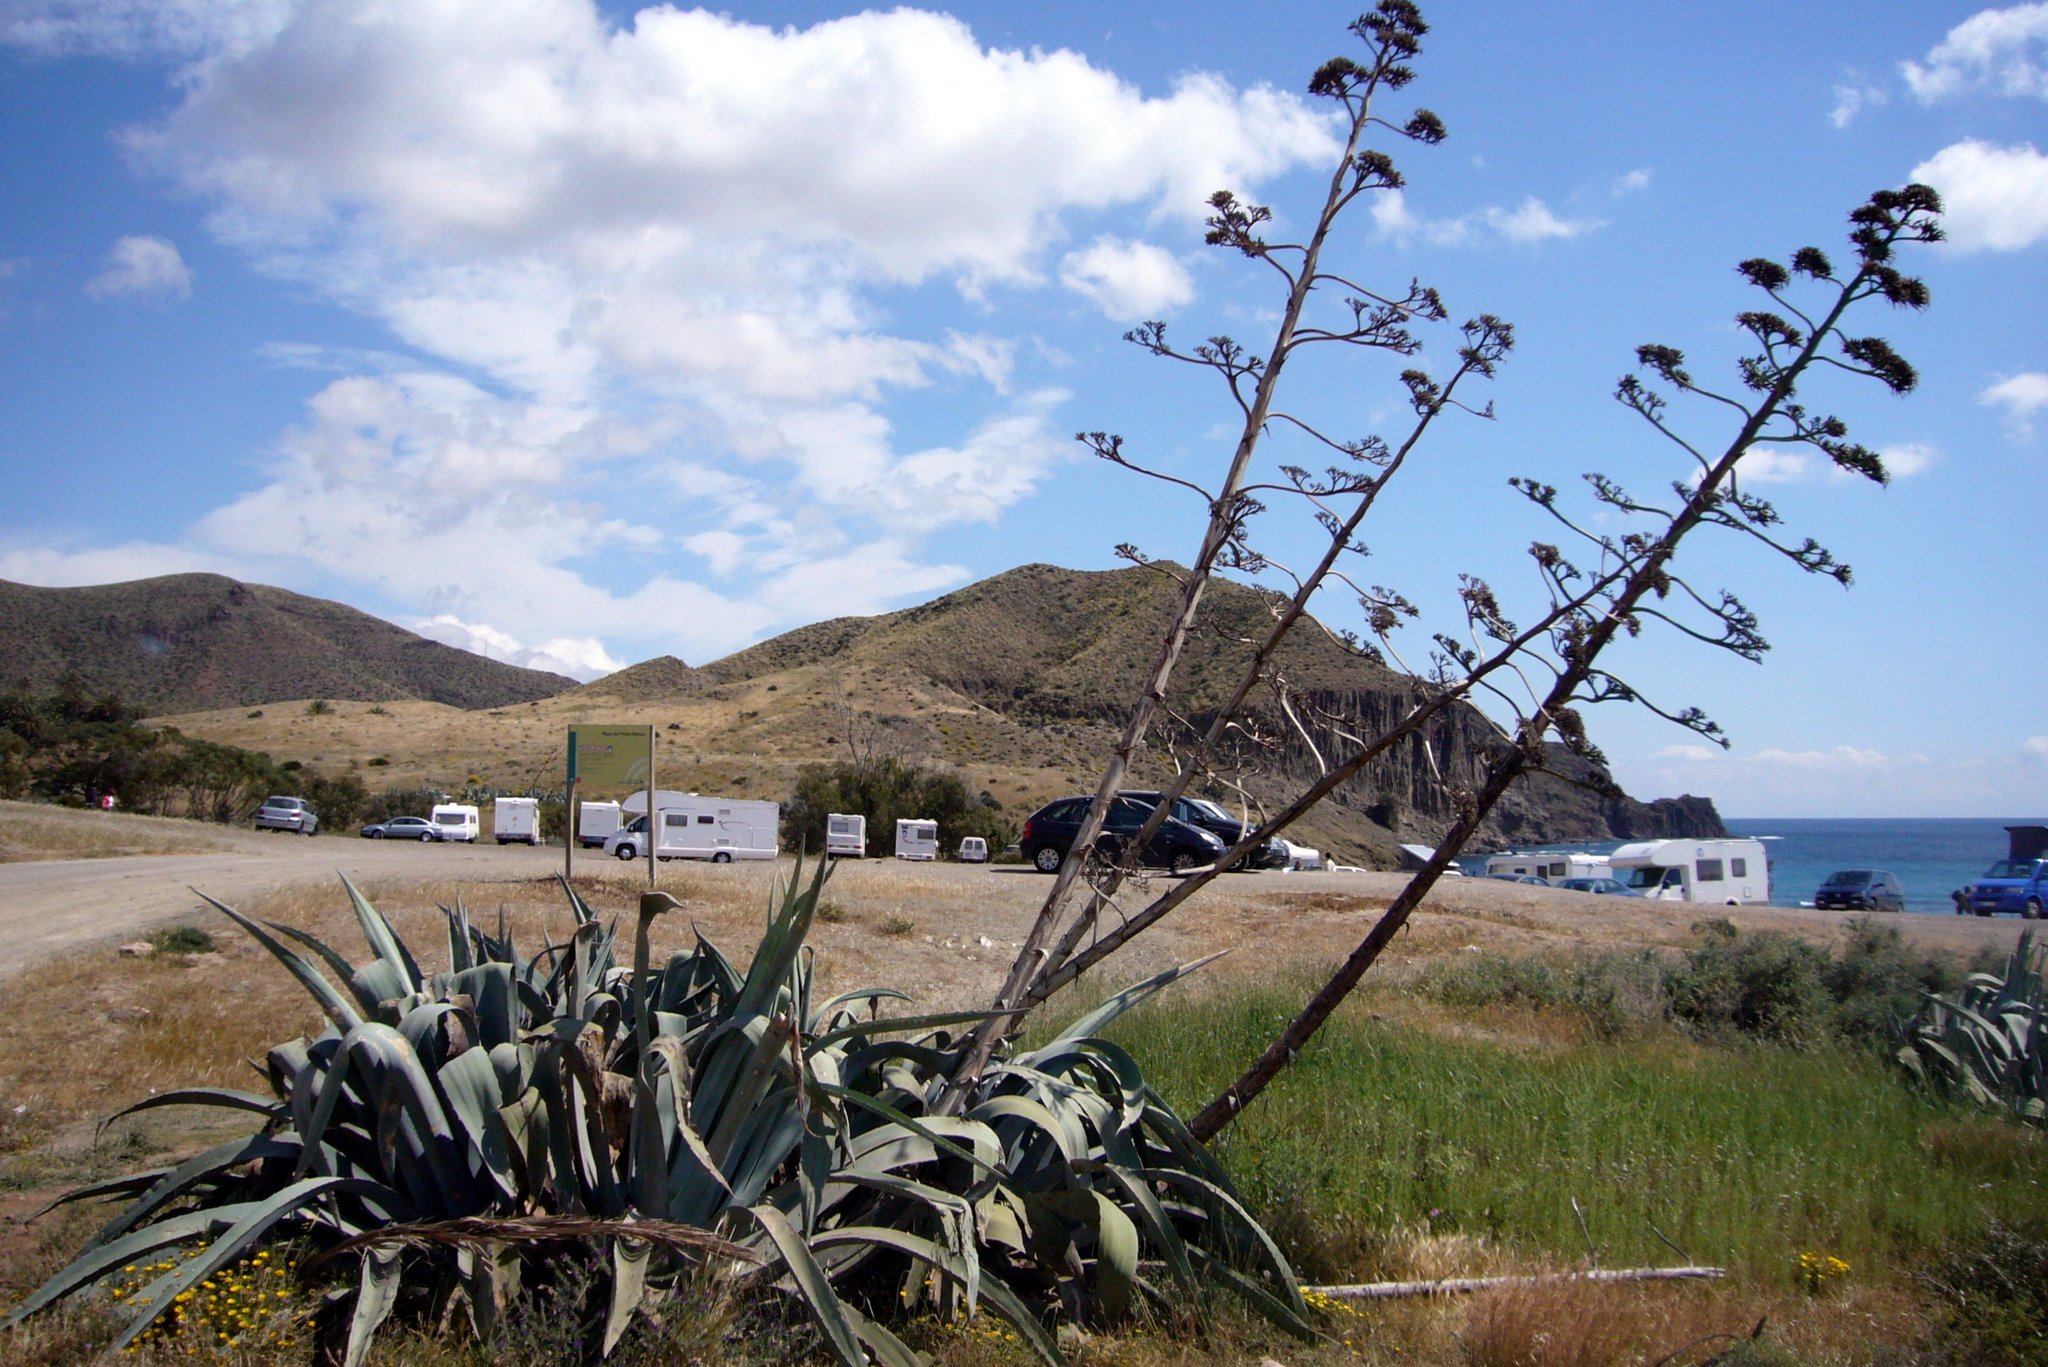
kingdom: Plantae
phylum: Tracheophyta
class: Liliopsida
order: Asparagales
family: Asparagaceae
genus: Agave
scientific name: Agave americana
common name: Centuryplant
